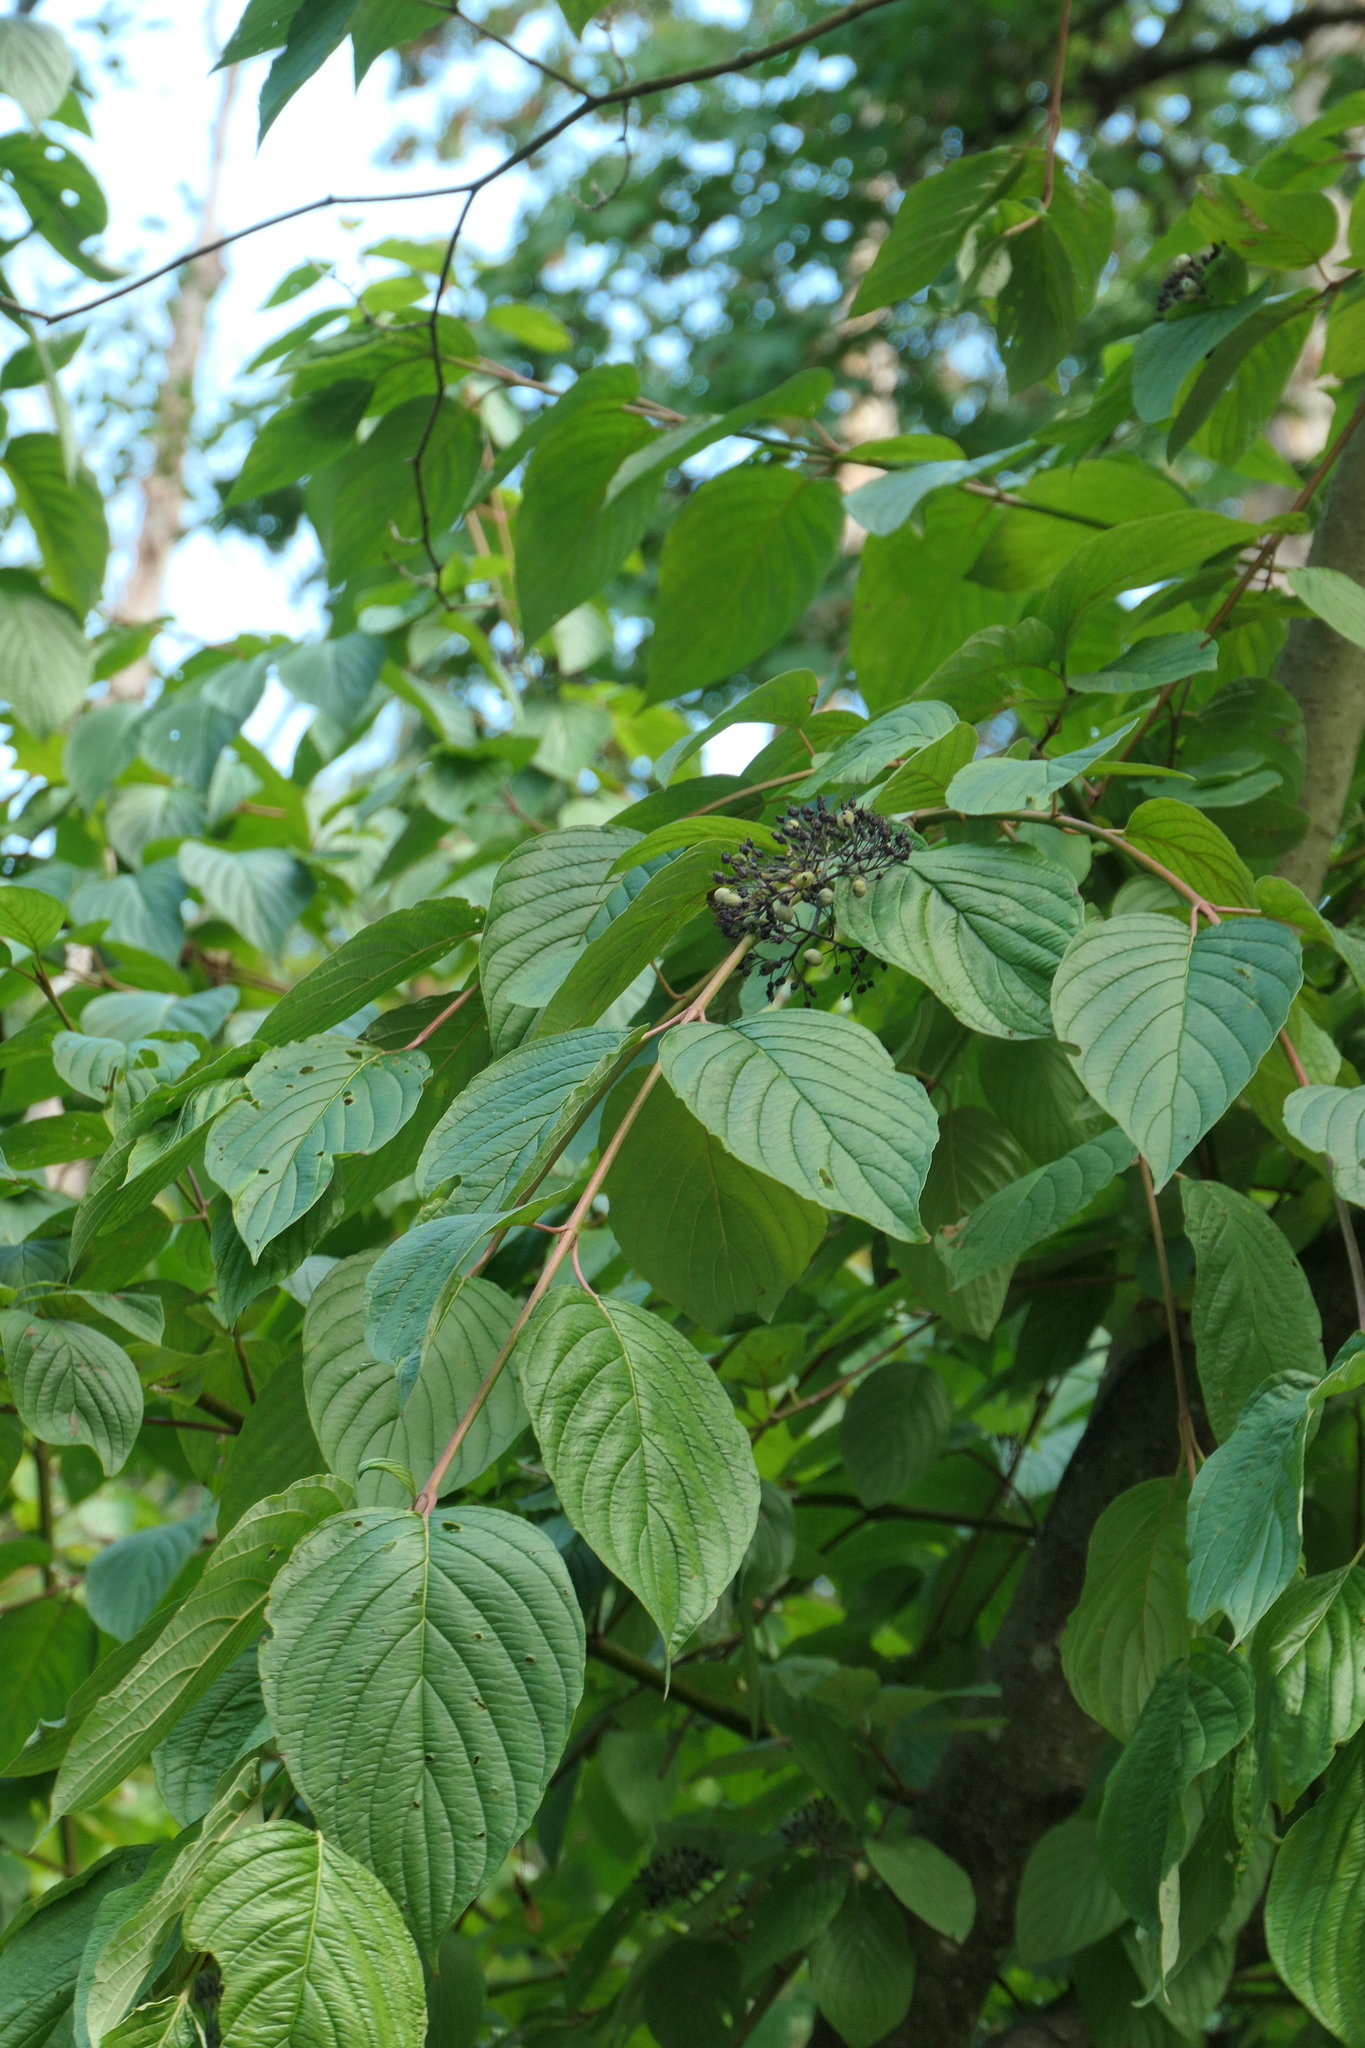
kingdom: Plantae
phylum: Tracheophyta
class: Magnoliopsida
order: Cornales
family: Cornaceae
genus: Cornus
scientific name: Cornus sericea
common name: Red-osier dogwood
